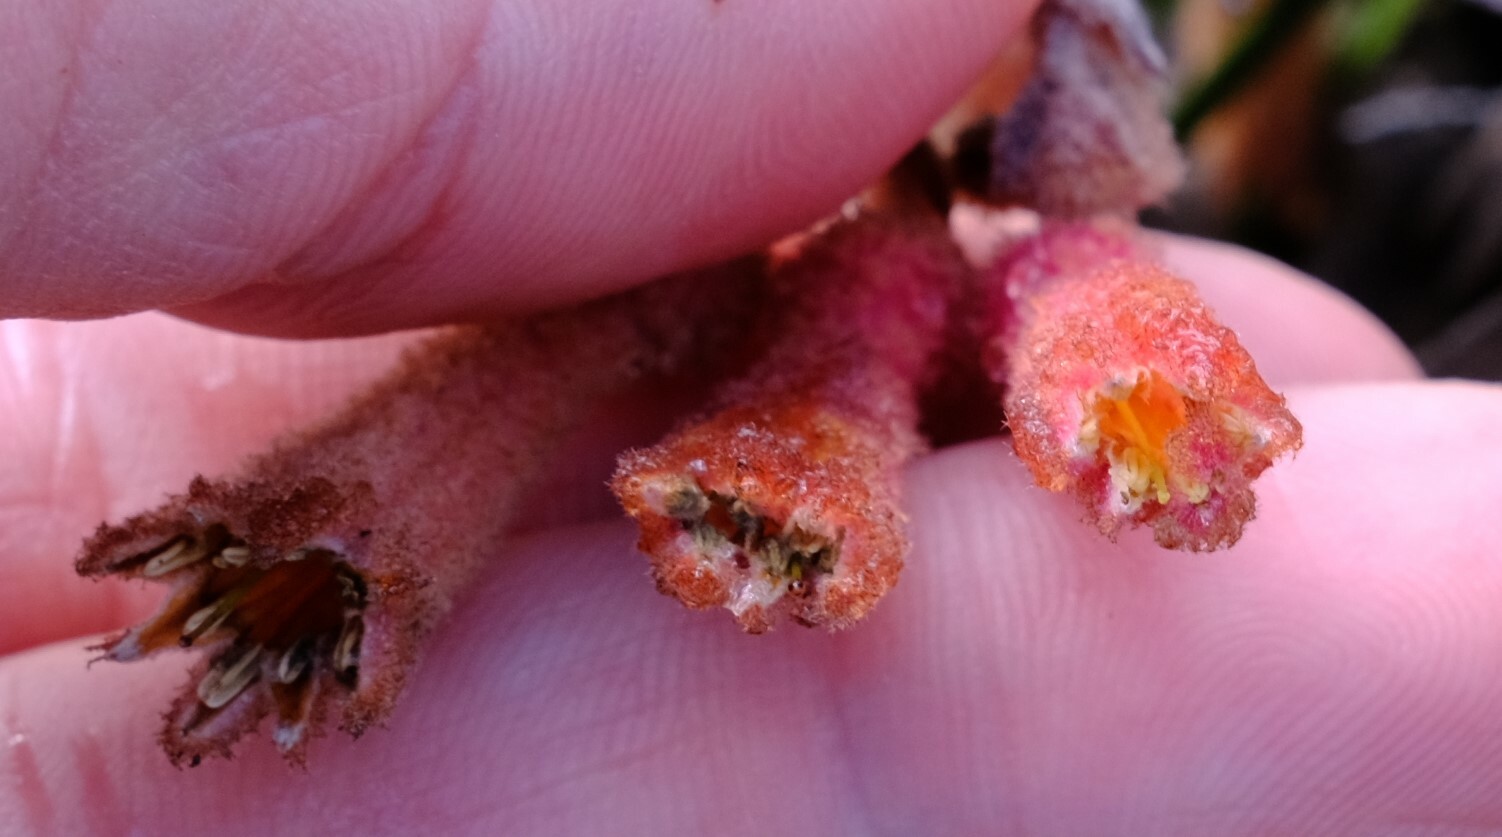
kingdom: Plantae
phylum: Tracheophyta
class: Liliopsida
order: Commelinales
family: Haemodoraceae
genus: Blancoa
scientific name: Blancoa canescens
